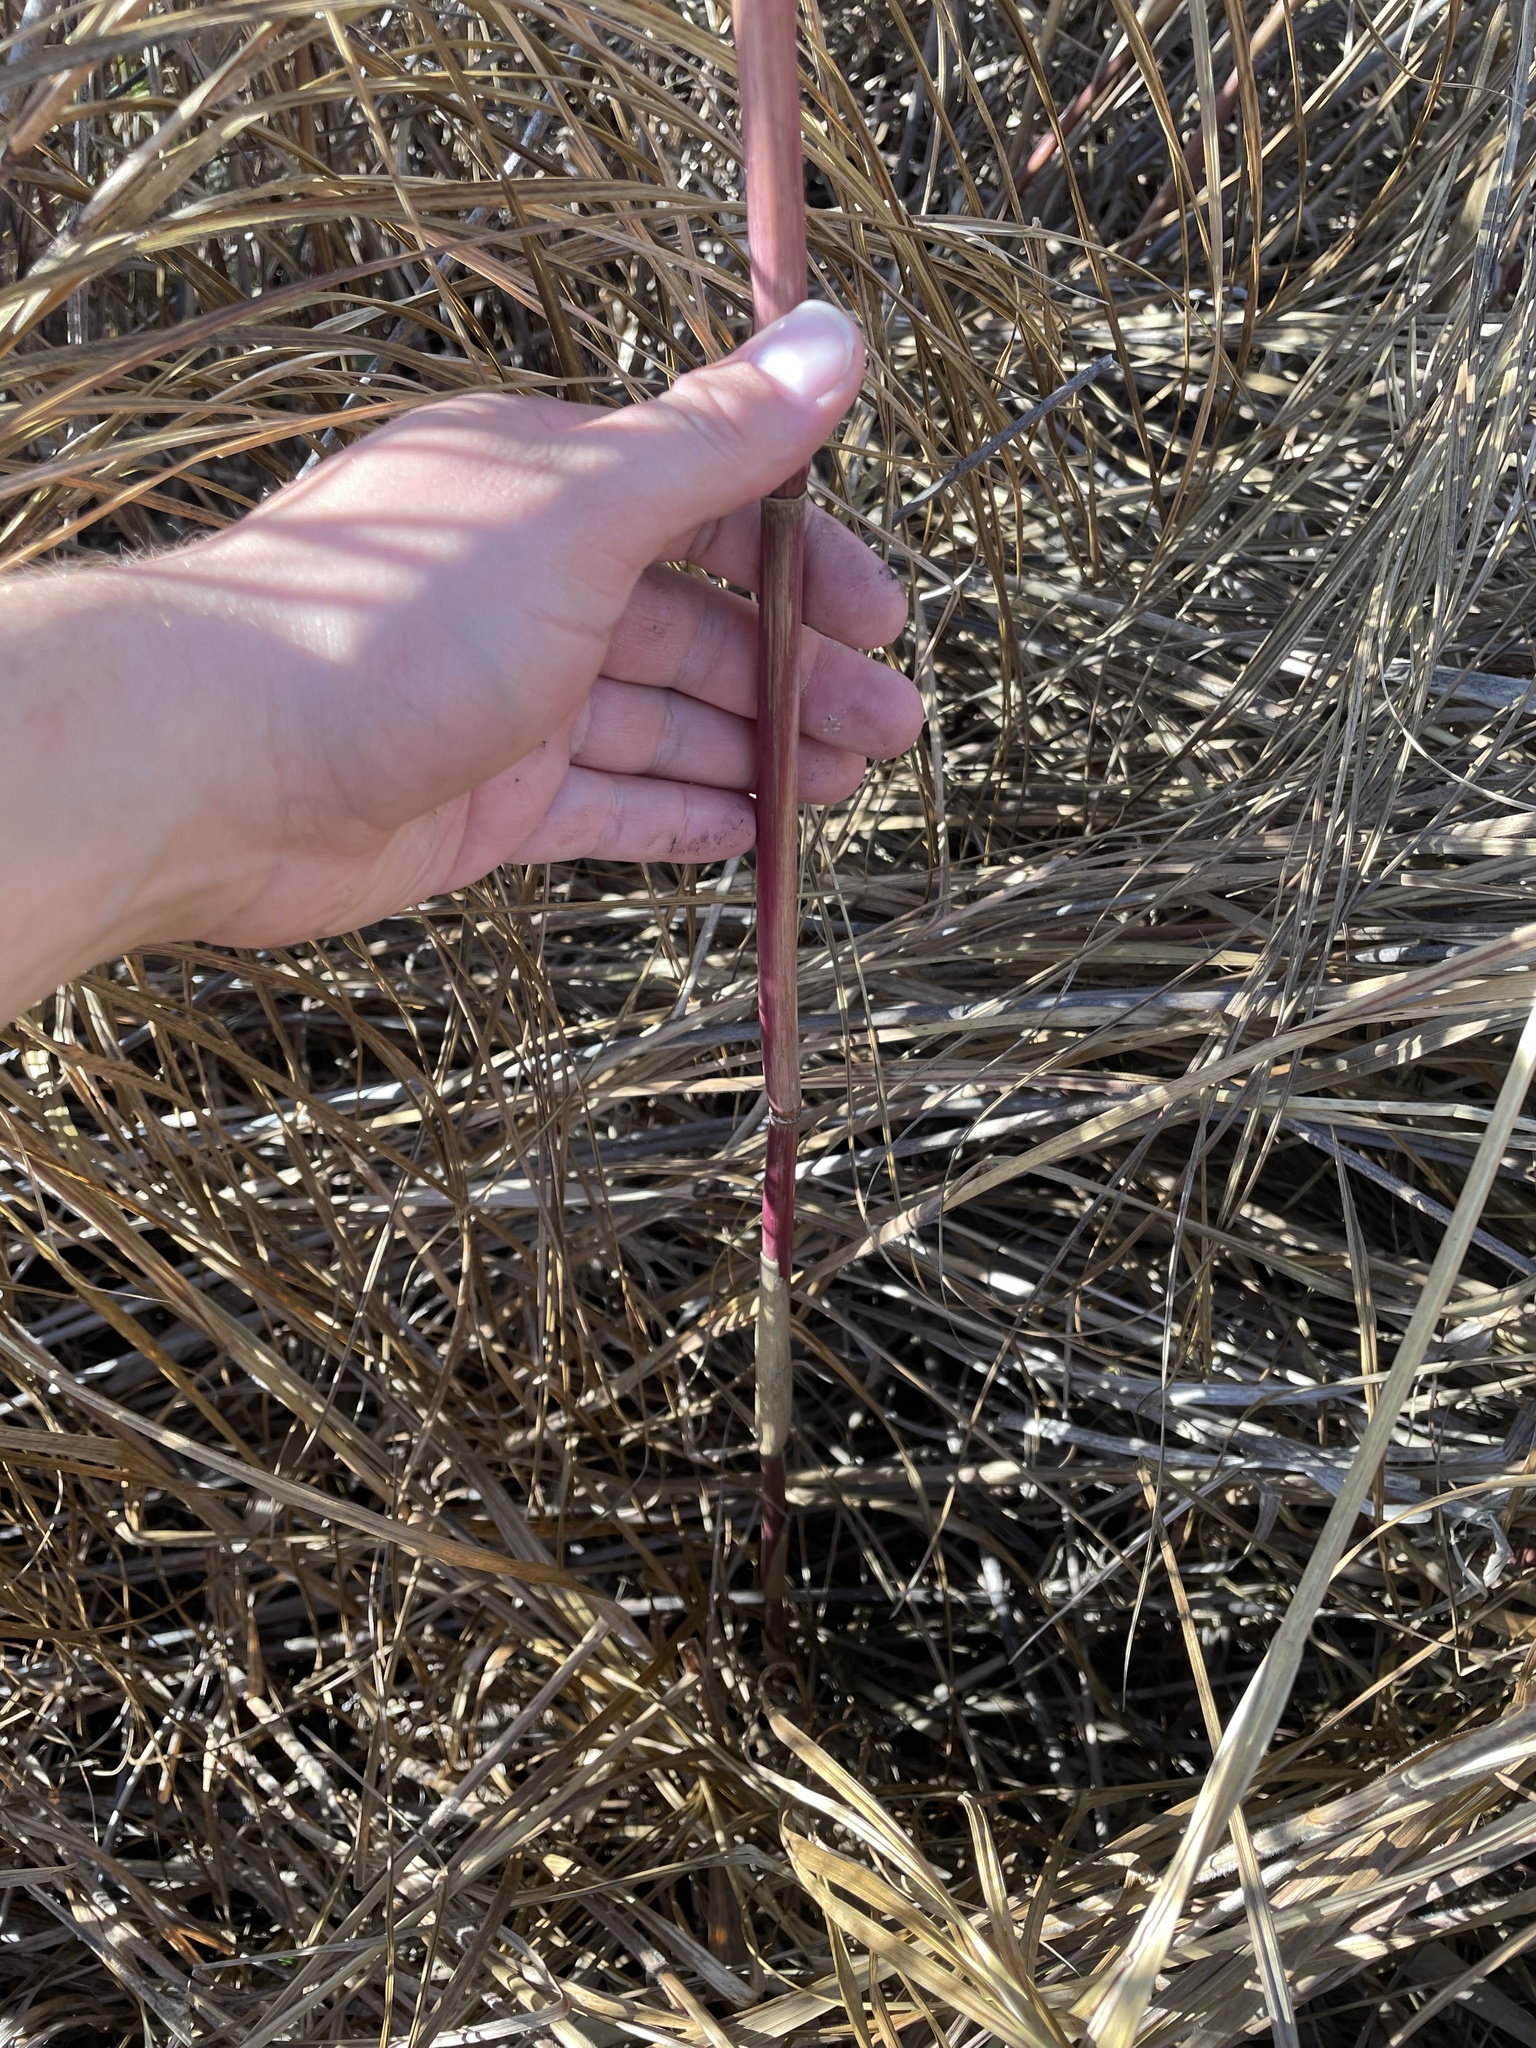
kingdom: Plantae
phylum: Tracheophyta
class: Liliopsida
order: Poales
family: Poaceae
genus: Phragmites
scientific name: Phragmites australis
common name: Common reed
